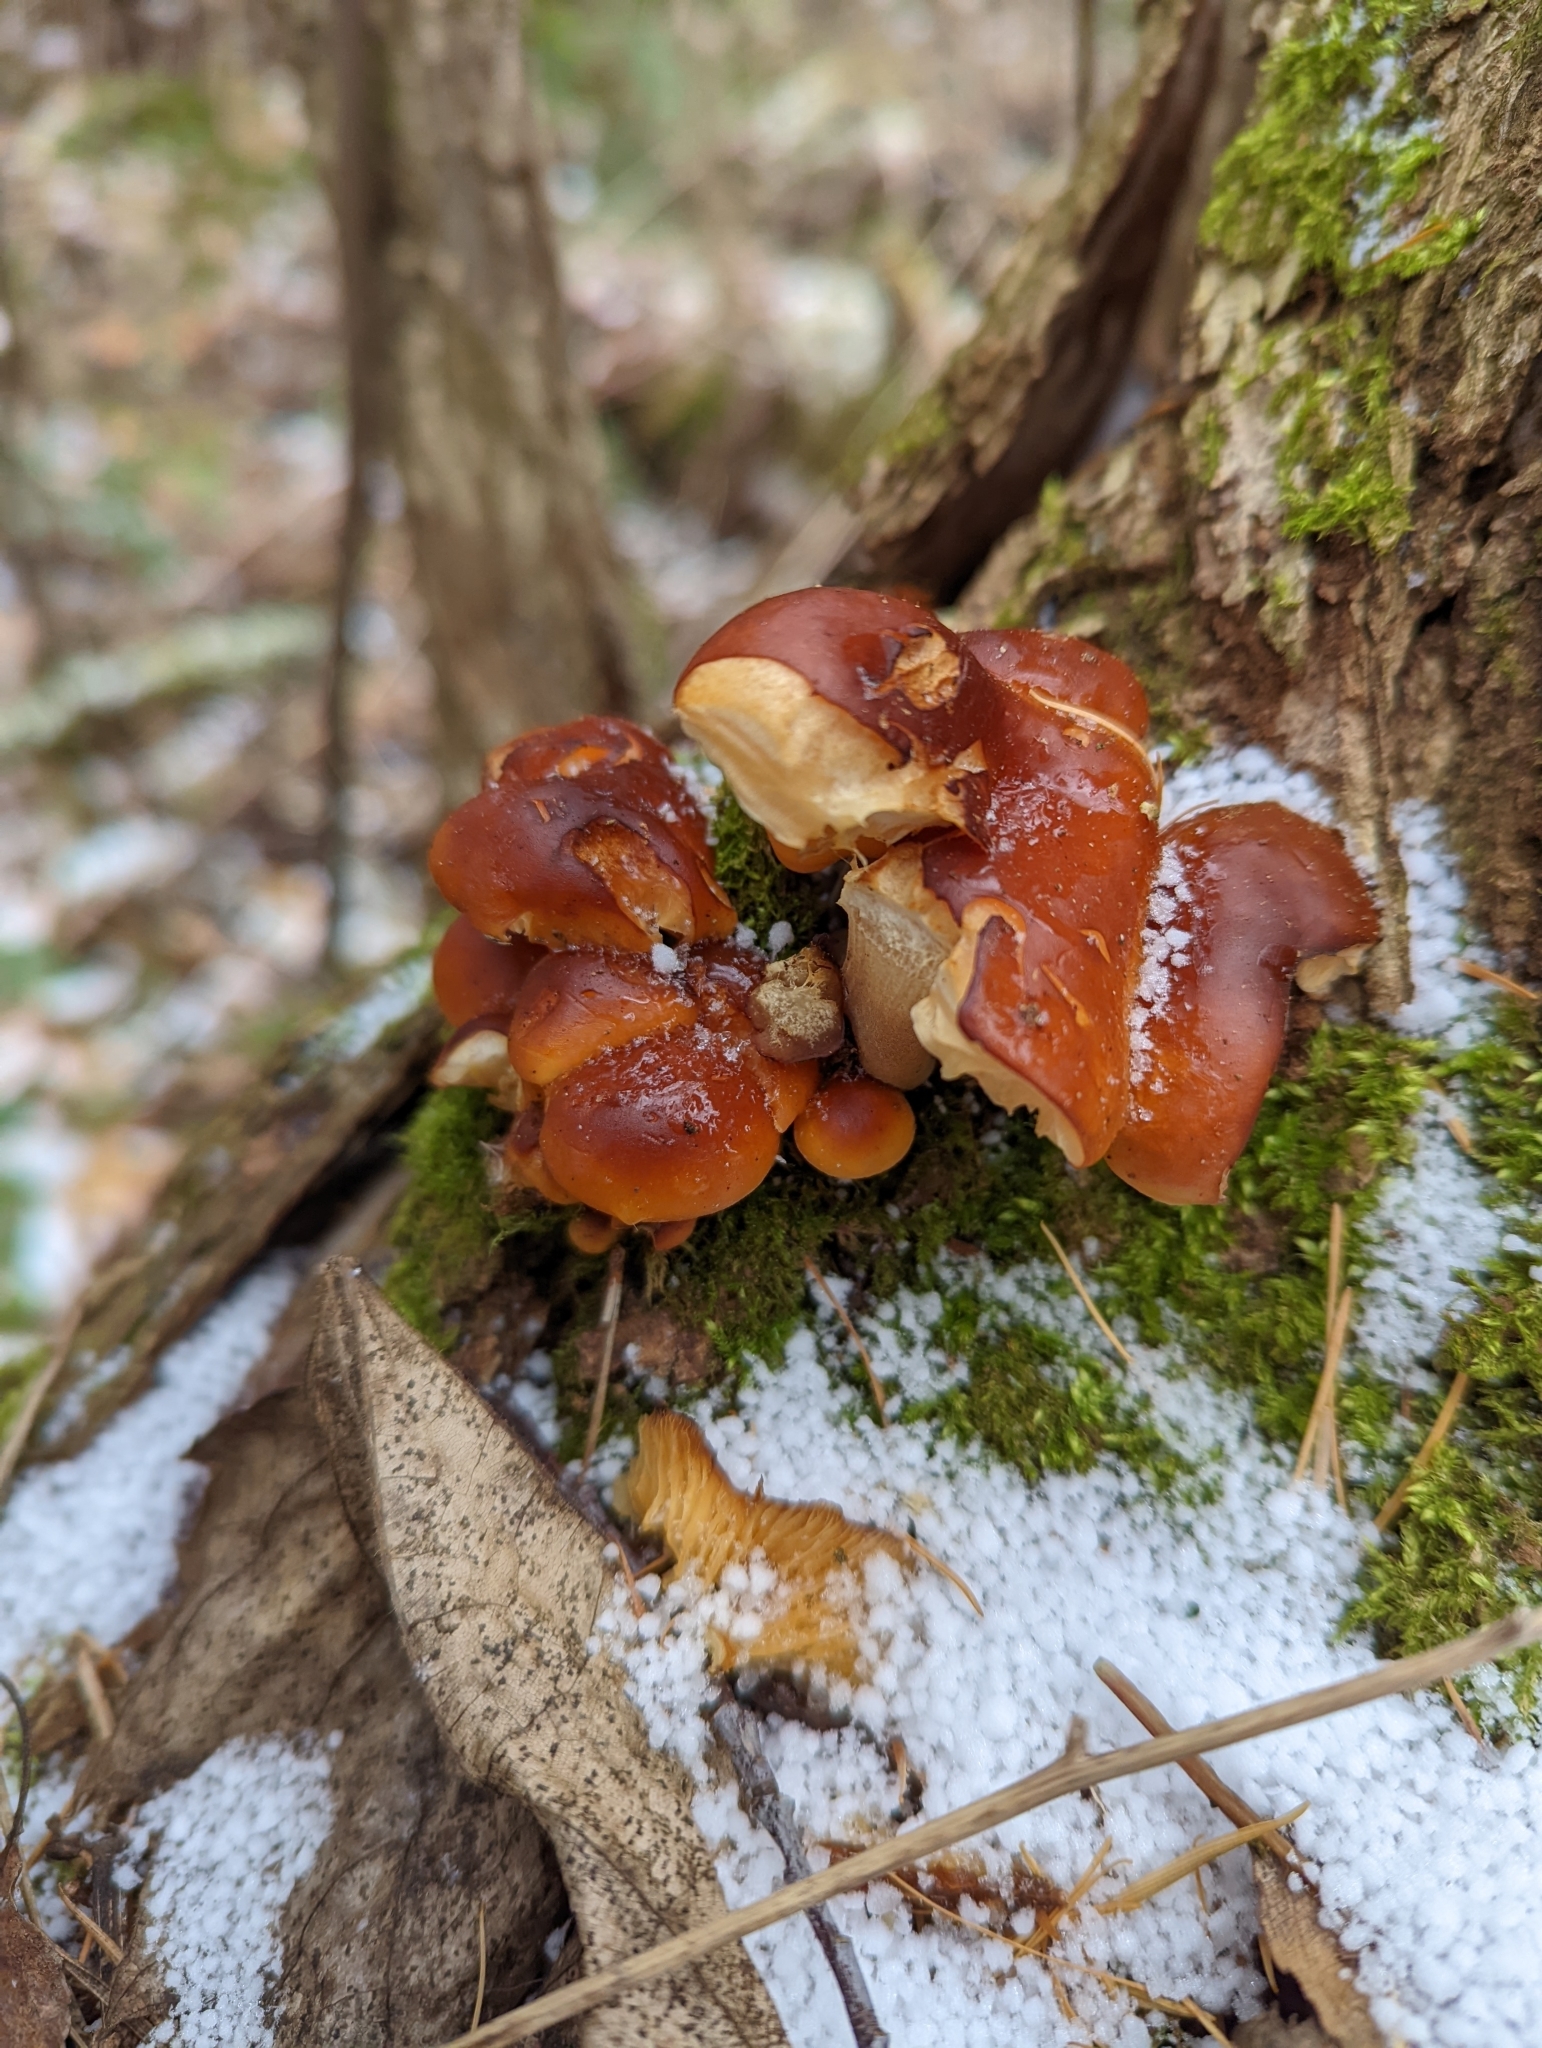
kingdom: Fungi
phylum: Basidiomycota
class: Agaricomycetes
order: Agaricales
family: Physalacriaceae
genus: Flammulina
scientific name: Flammulina velutipes
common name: Velvet shank
